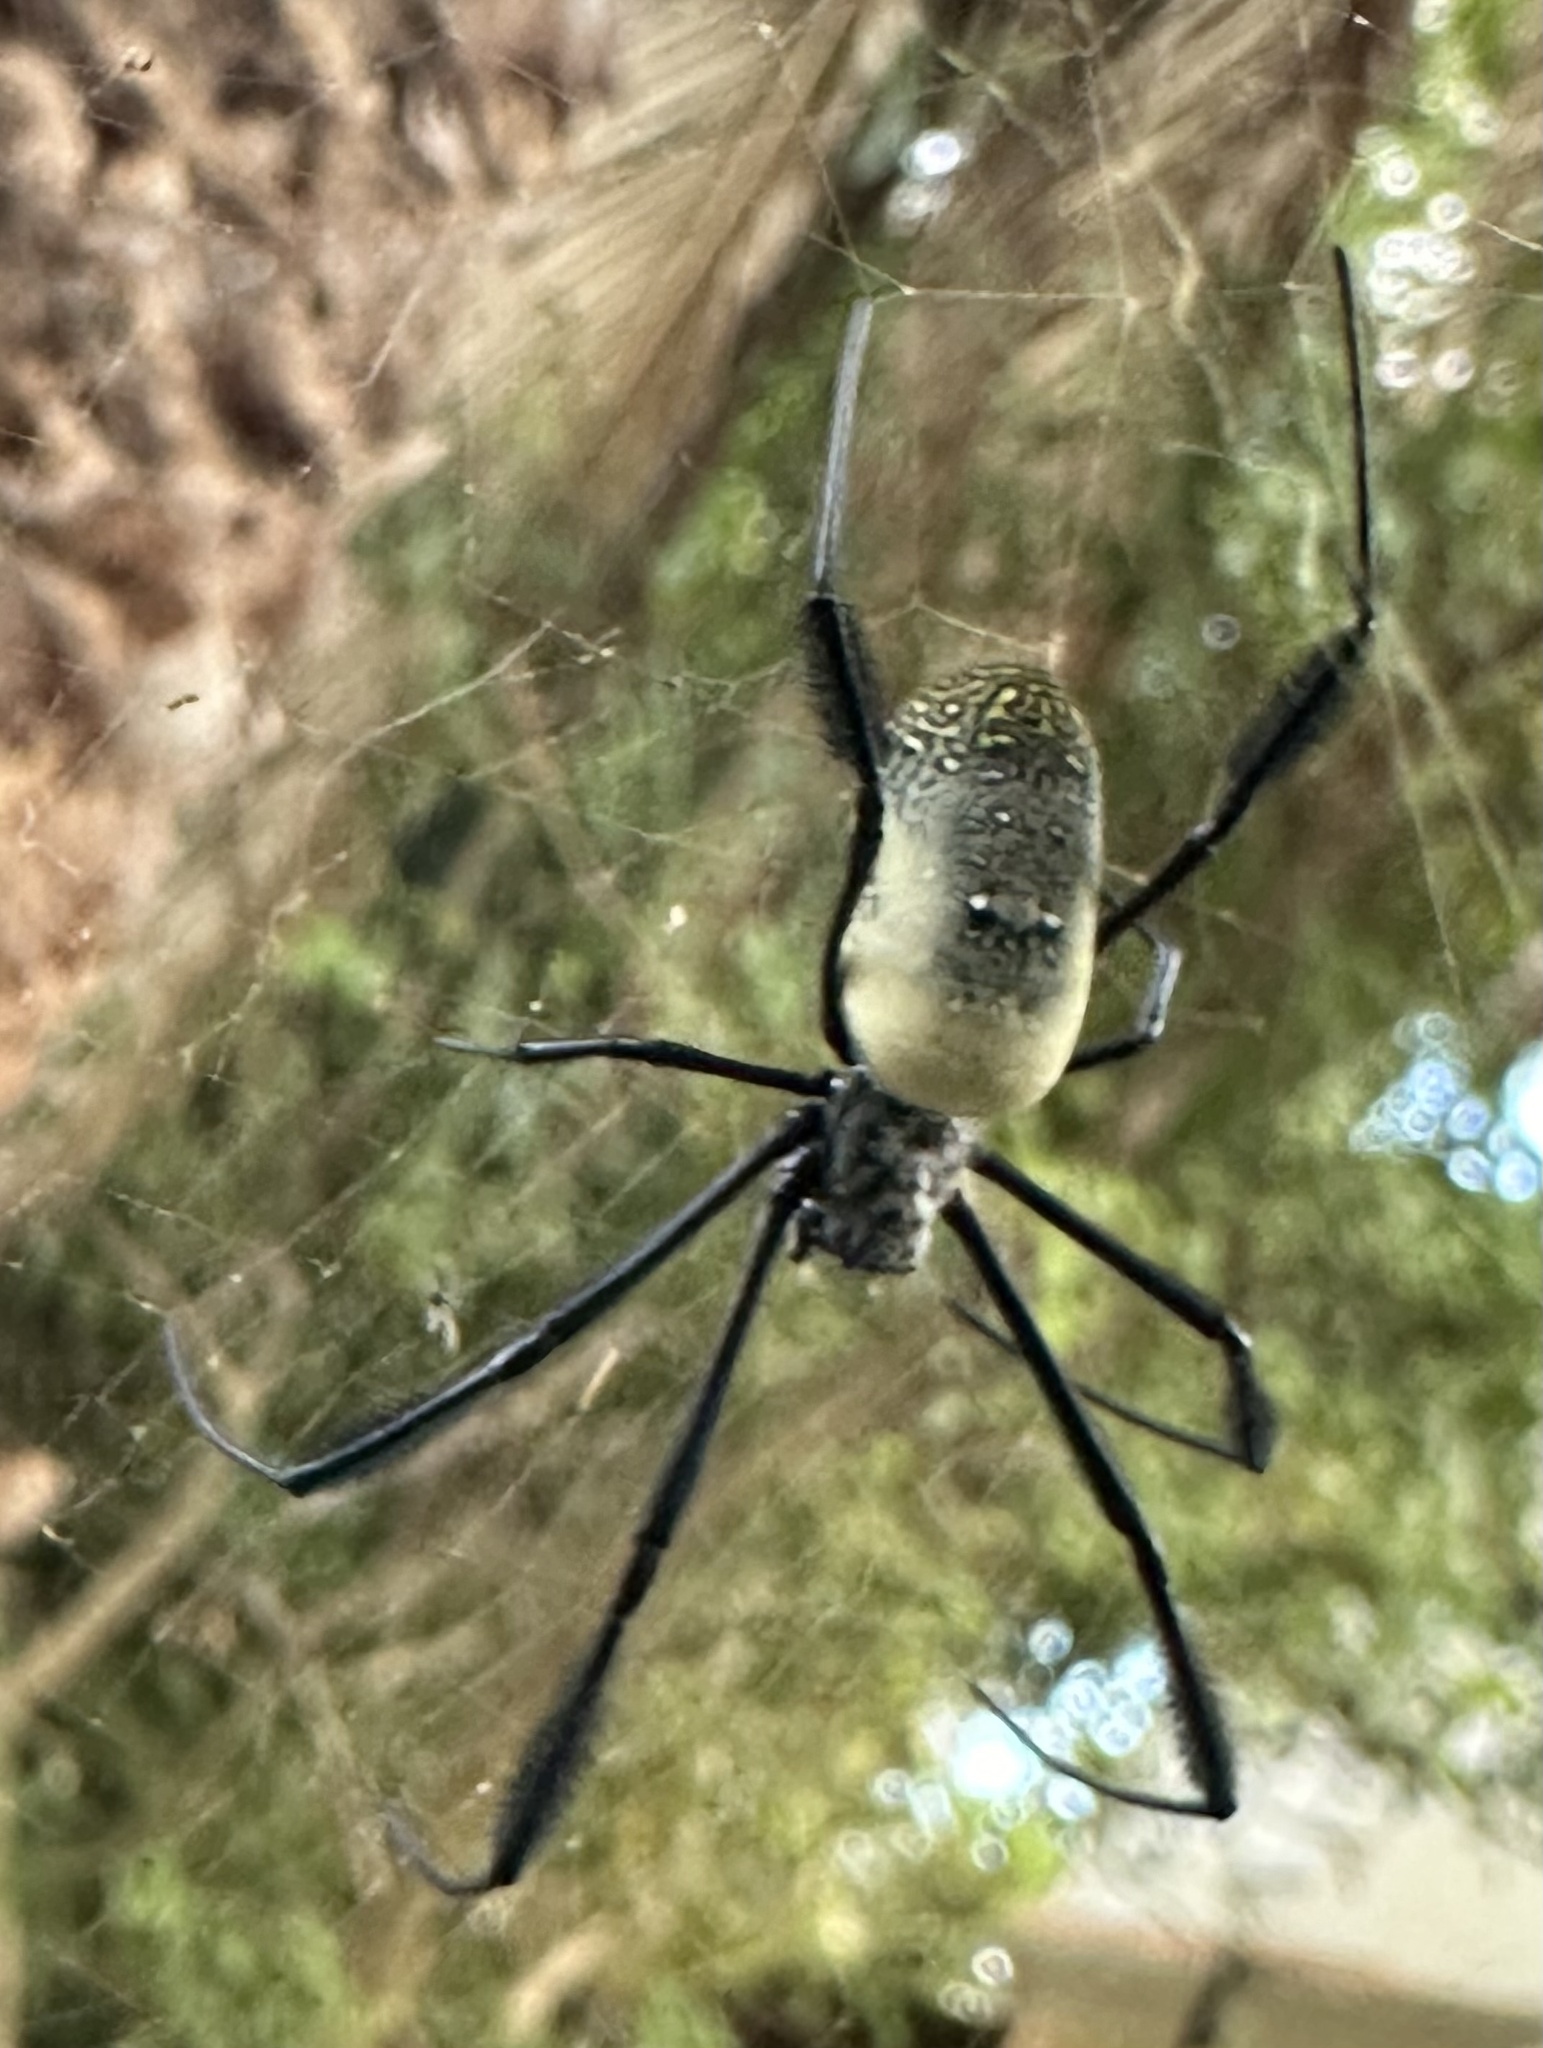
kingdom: Animalia
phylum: Arthropoda
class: Arachnida
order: Araneae
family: Araneidae
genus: Trichonephila
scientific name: Trichonephila fenestrata
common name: Hairy golden orb weaver
